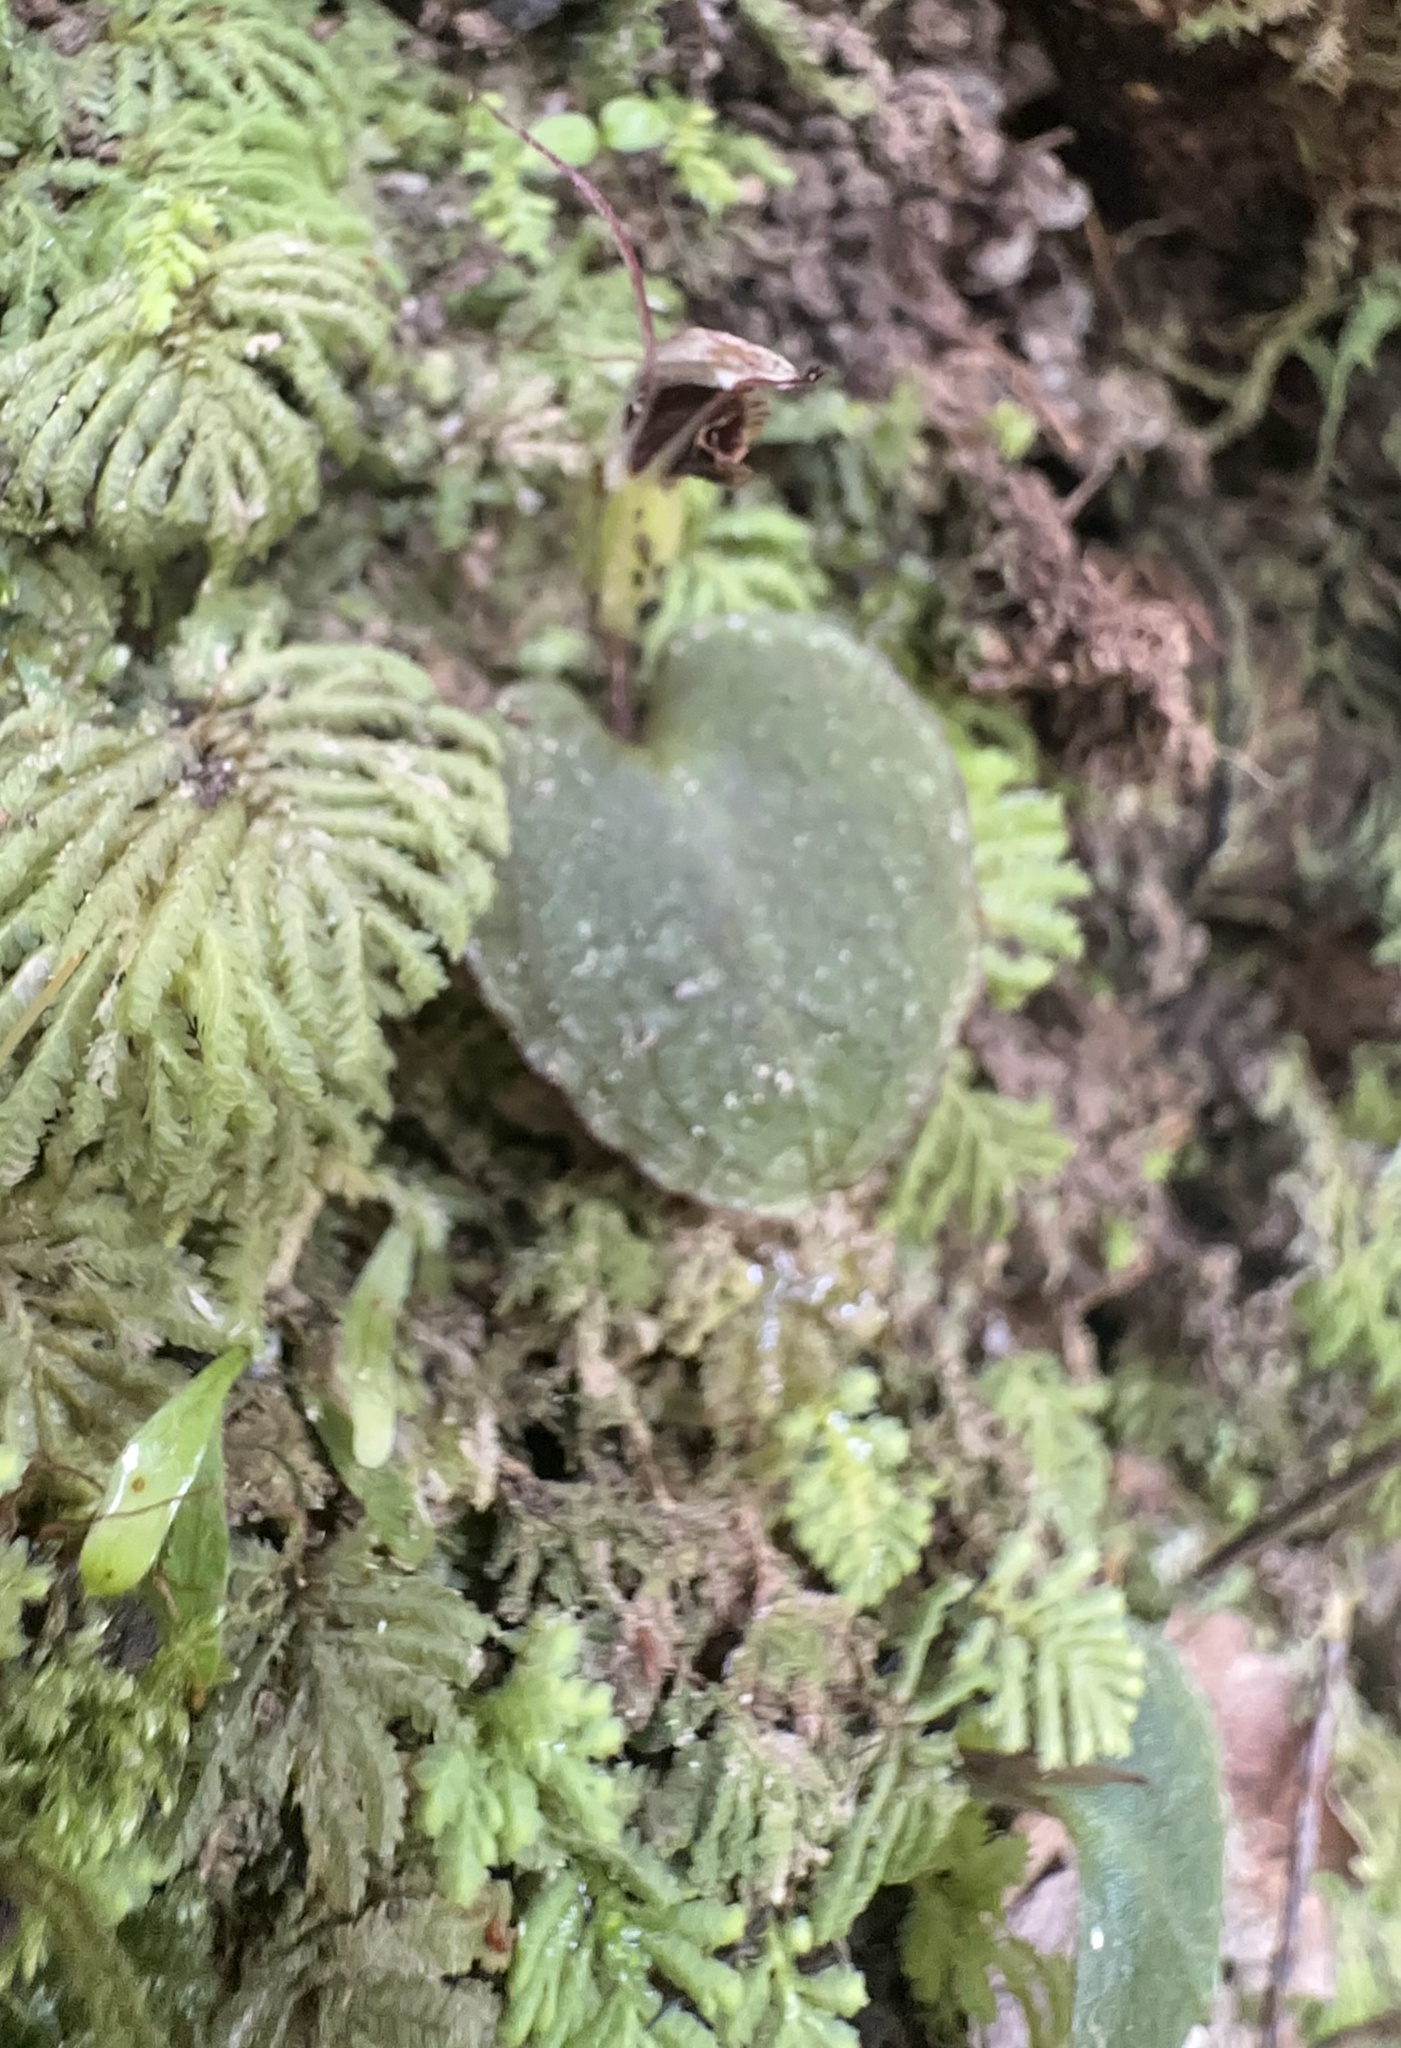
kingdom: Plantae
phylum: Tracheophyta
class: Liliopsida
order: Asparagales
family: Orchidaceae
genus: Corybas
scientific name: Corybas oblongus
